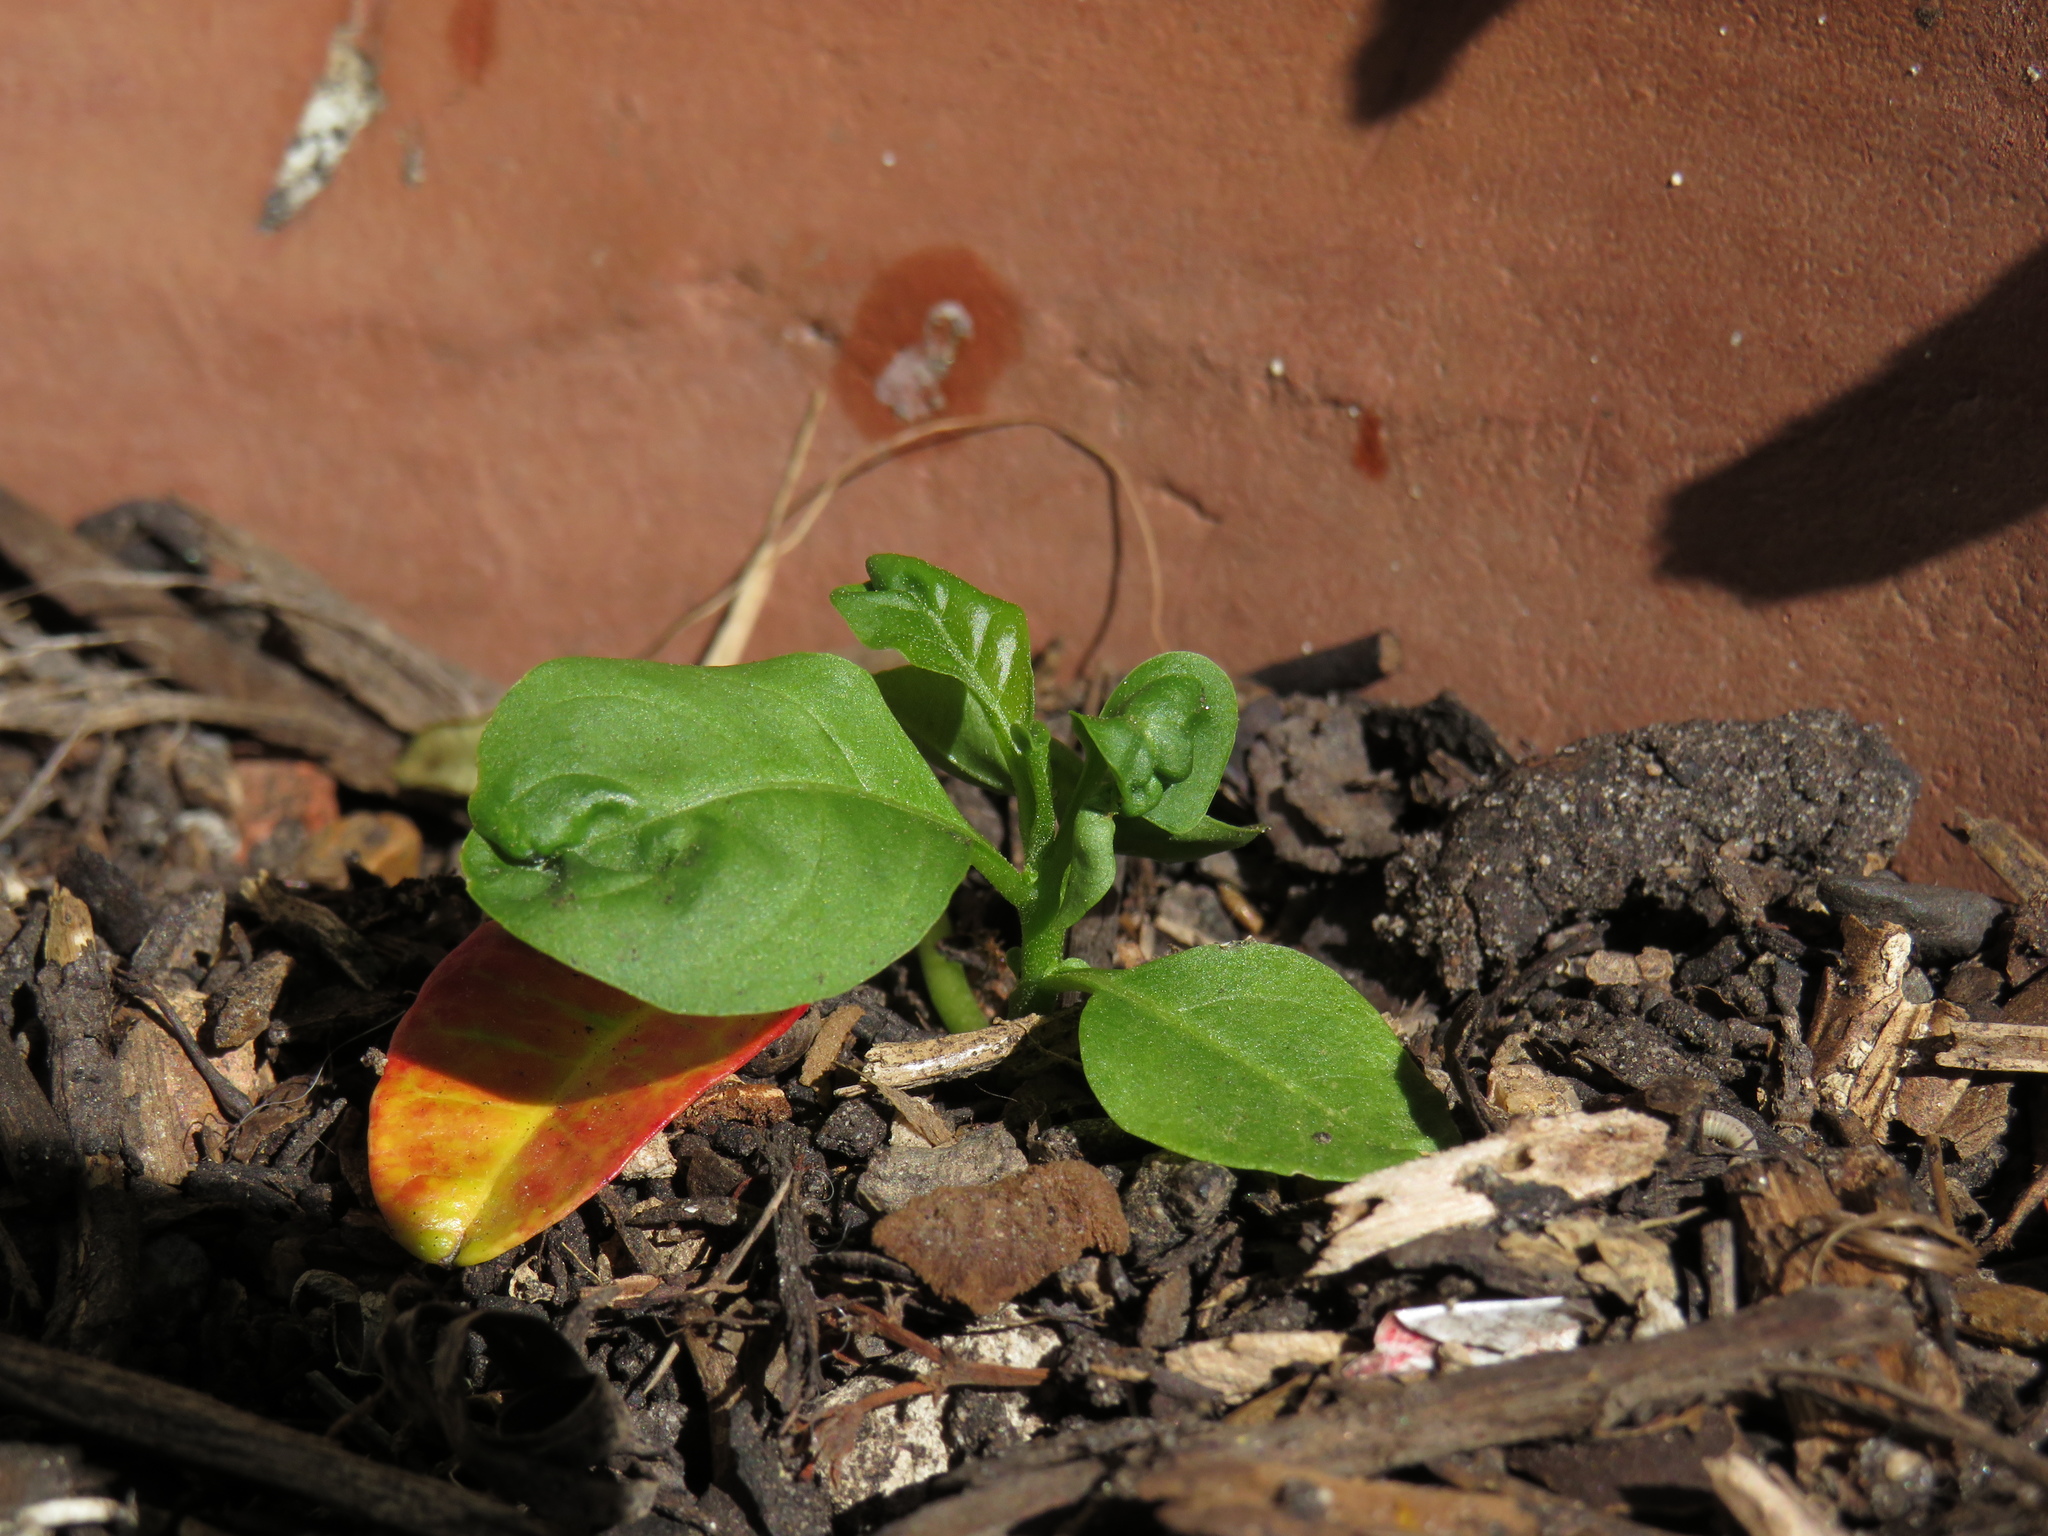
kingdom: Plantae
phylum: Tracheophyta
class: Magnoliopsida
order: Solanales
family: Solanaceae
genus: Cestrum
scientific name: Cestrum laevigatum
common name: Inkberry
